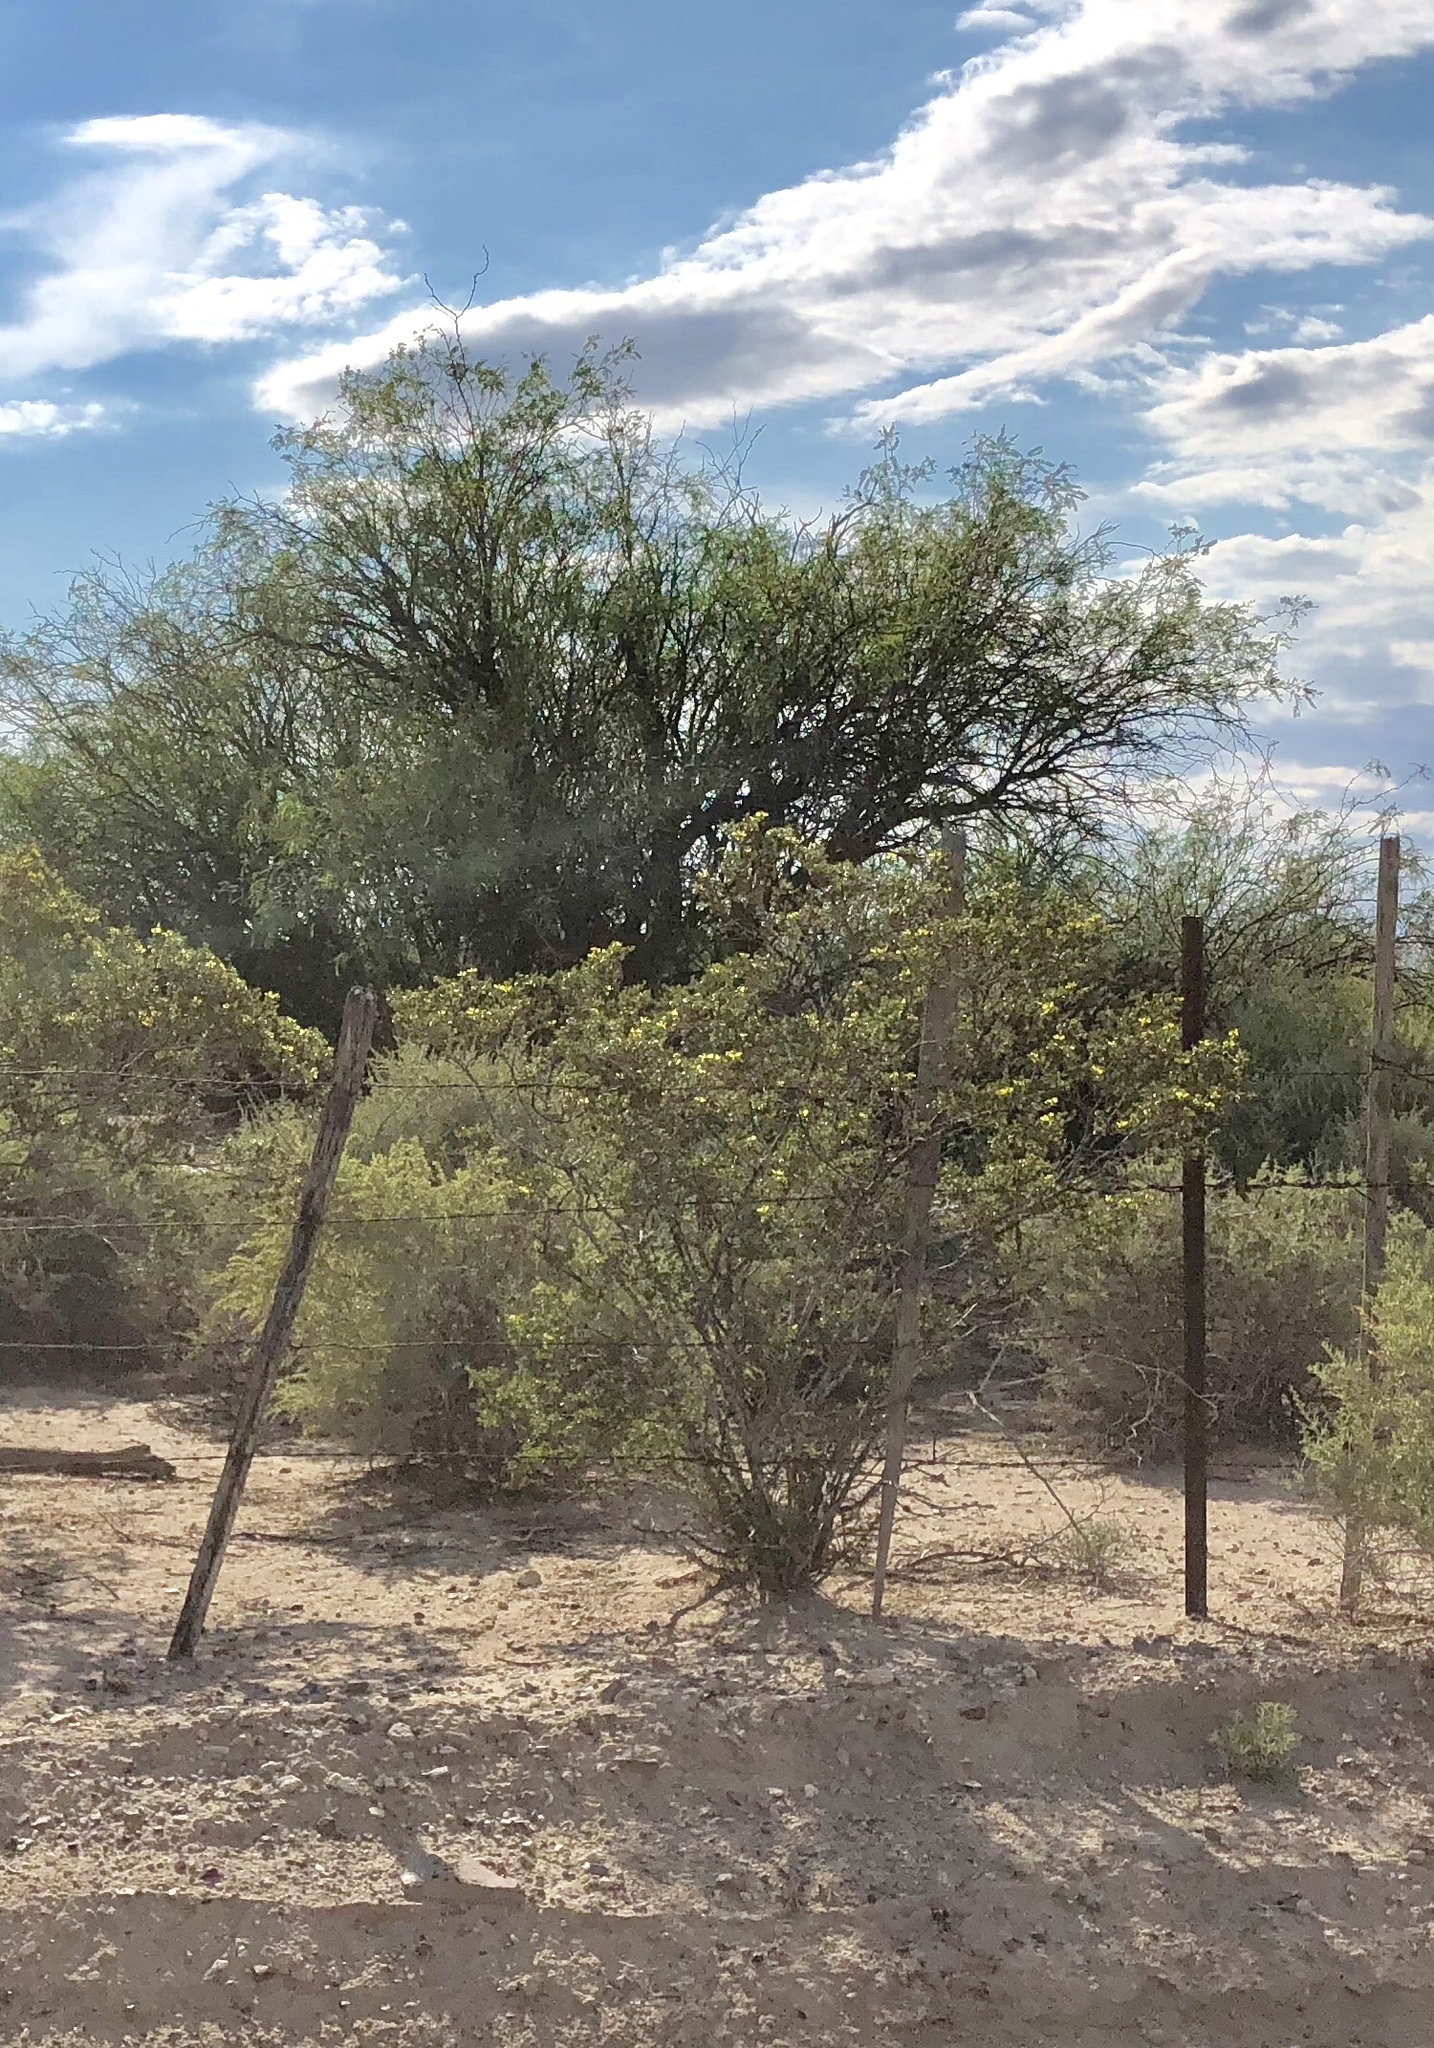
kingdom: Plantae
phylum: Tracheophyta
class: Magnoliopsida
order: Zygophyllales
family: Zygophyllaceae
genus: Larrea
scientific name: Larrea tridentata
